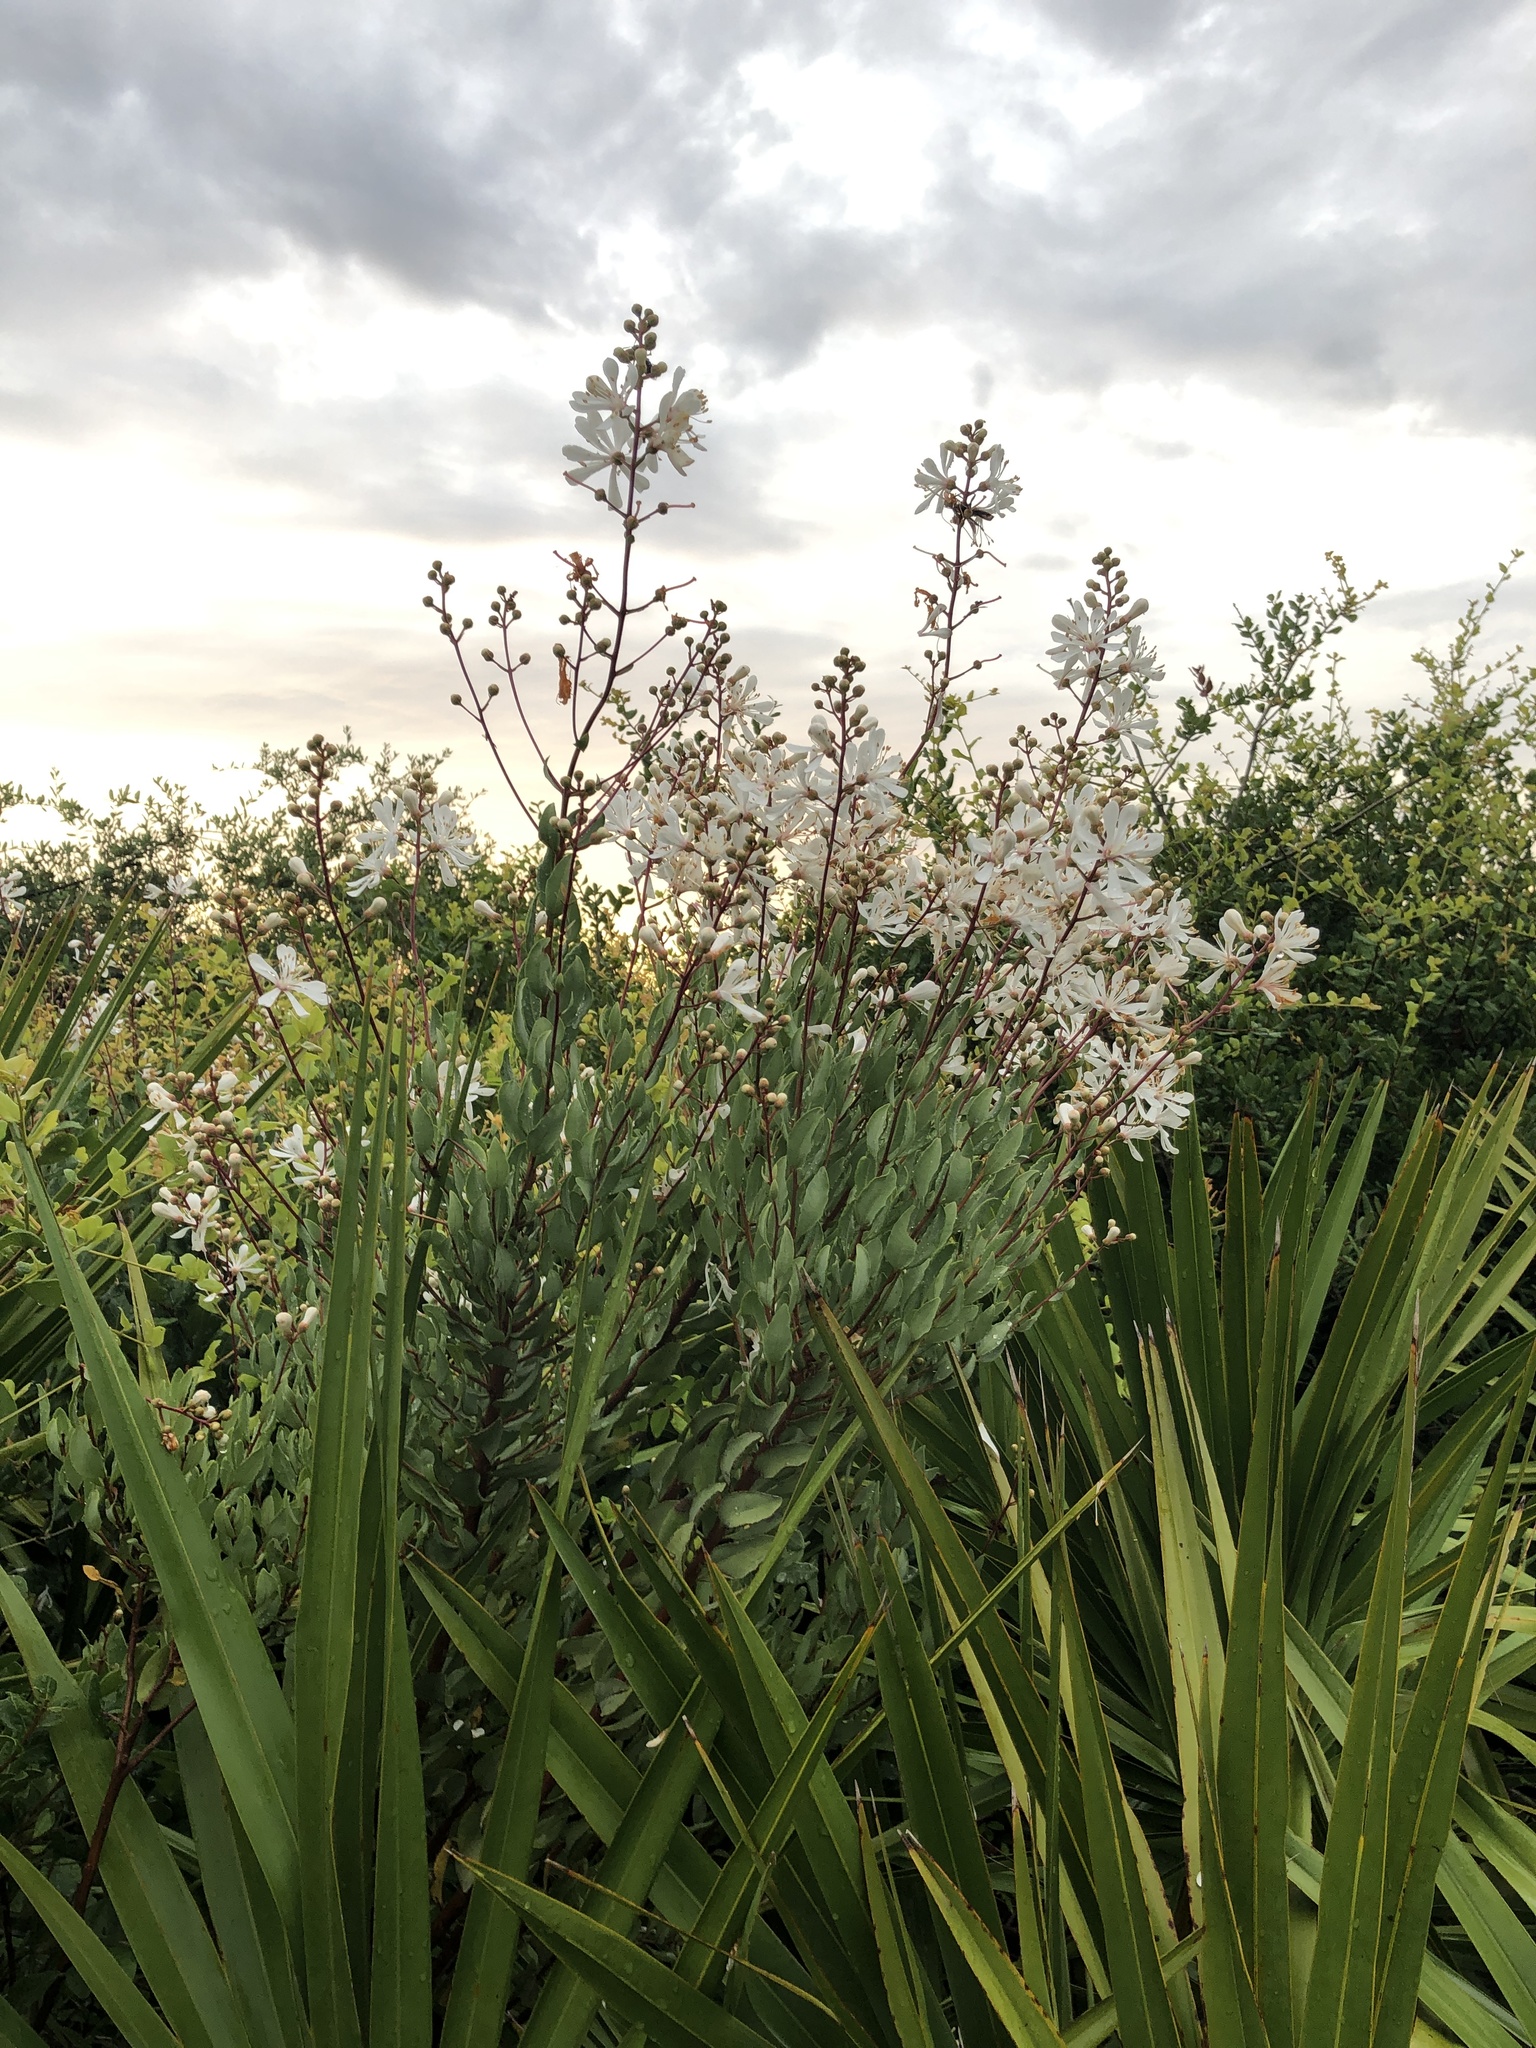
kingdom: Plantae
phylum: Tracheophyta
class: Magnoliopsida
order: Ericales
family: Ericaceae
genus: Bejaria
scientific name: Bejaria racemosa
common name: Tarflower
